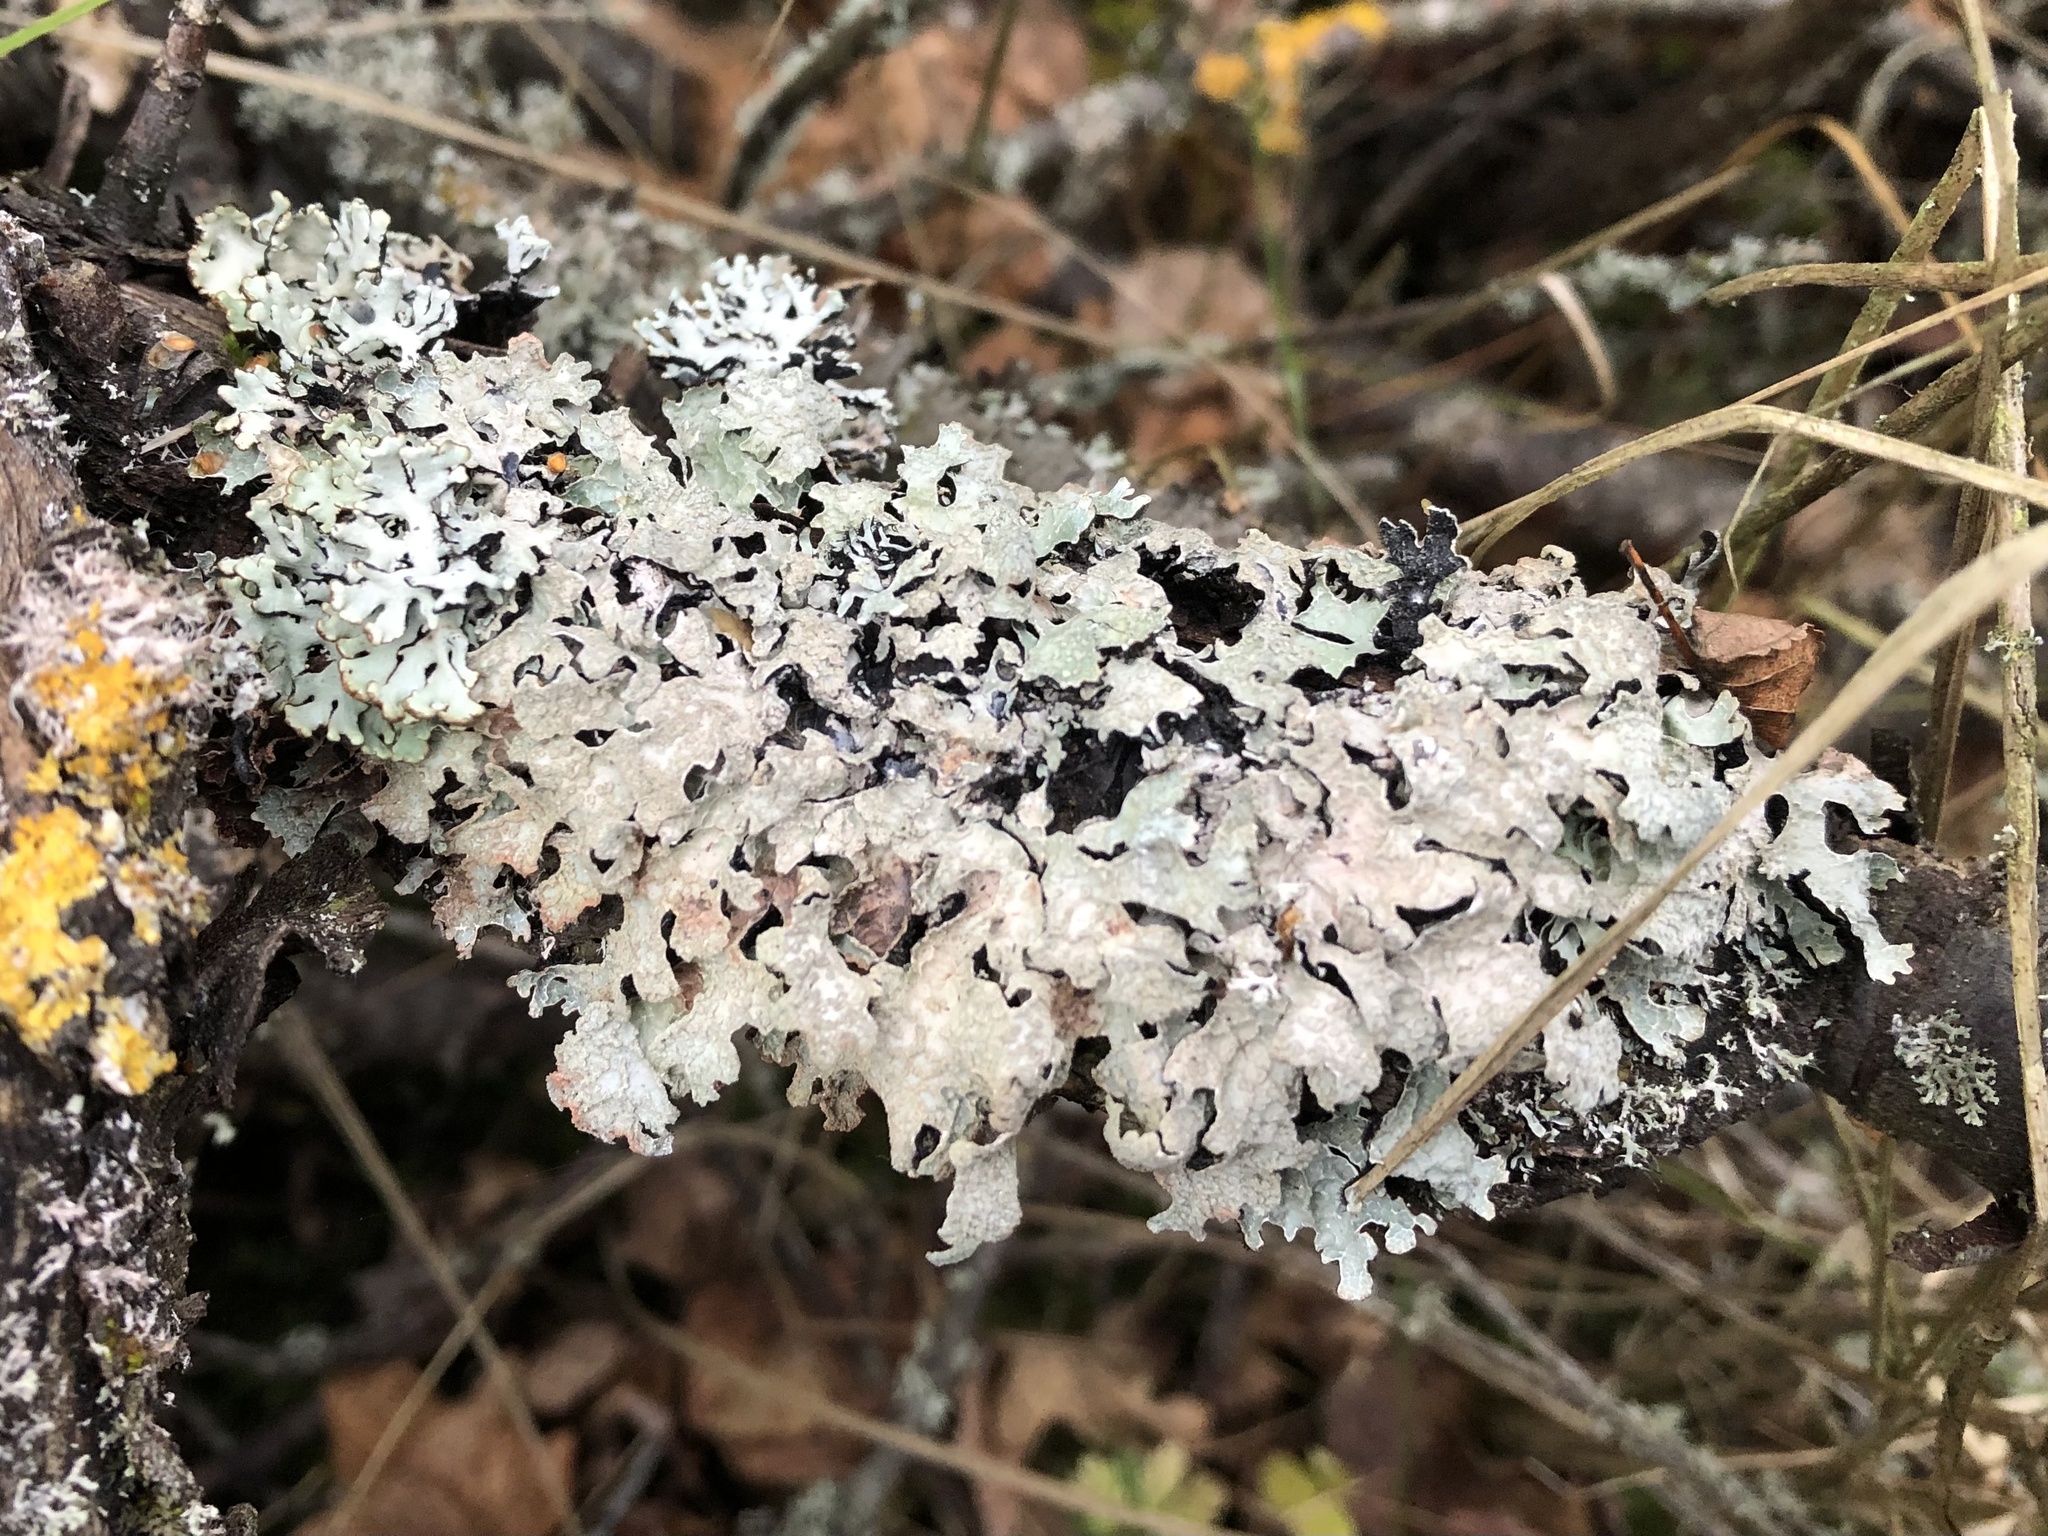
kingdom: Fungi
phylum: Ascomycota
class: Lecanoromycetes
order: Lecanorales
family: Parmeliaceae
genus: Parmelia
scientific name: Parmelia sulcata
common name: Netted shield lichen
